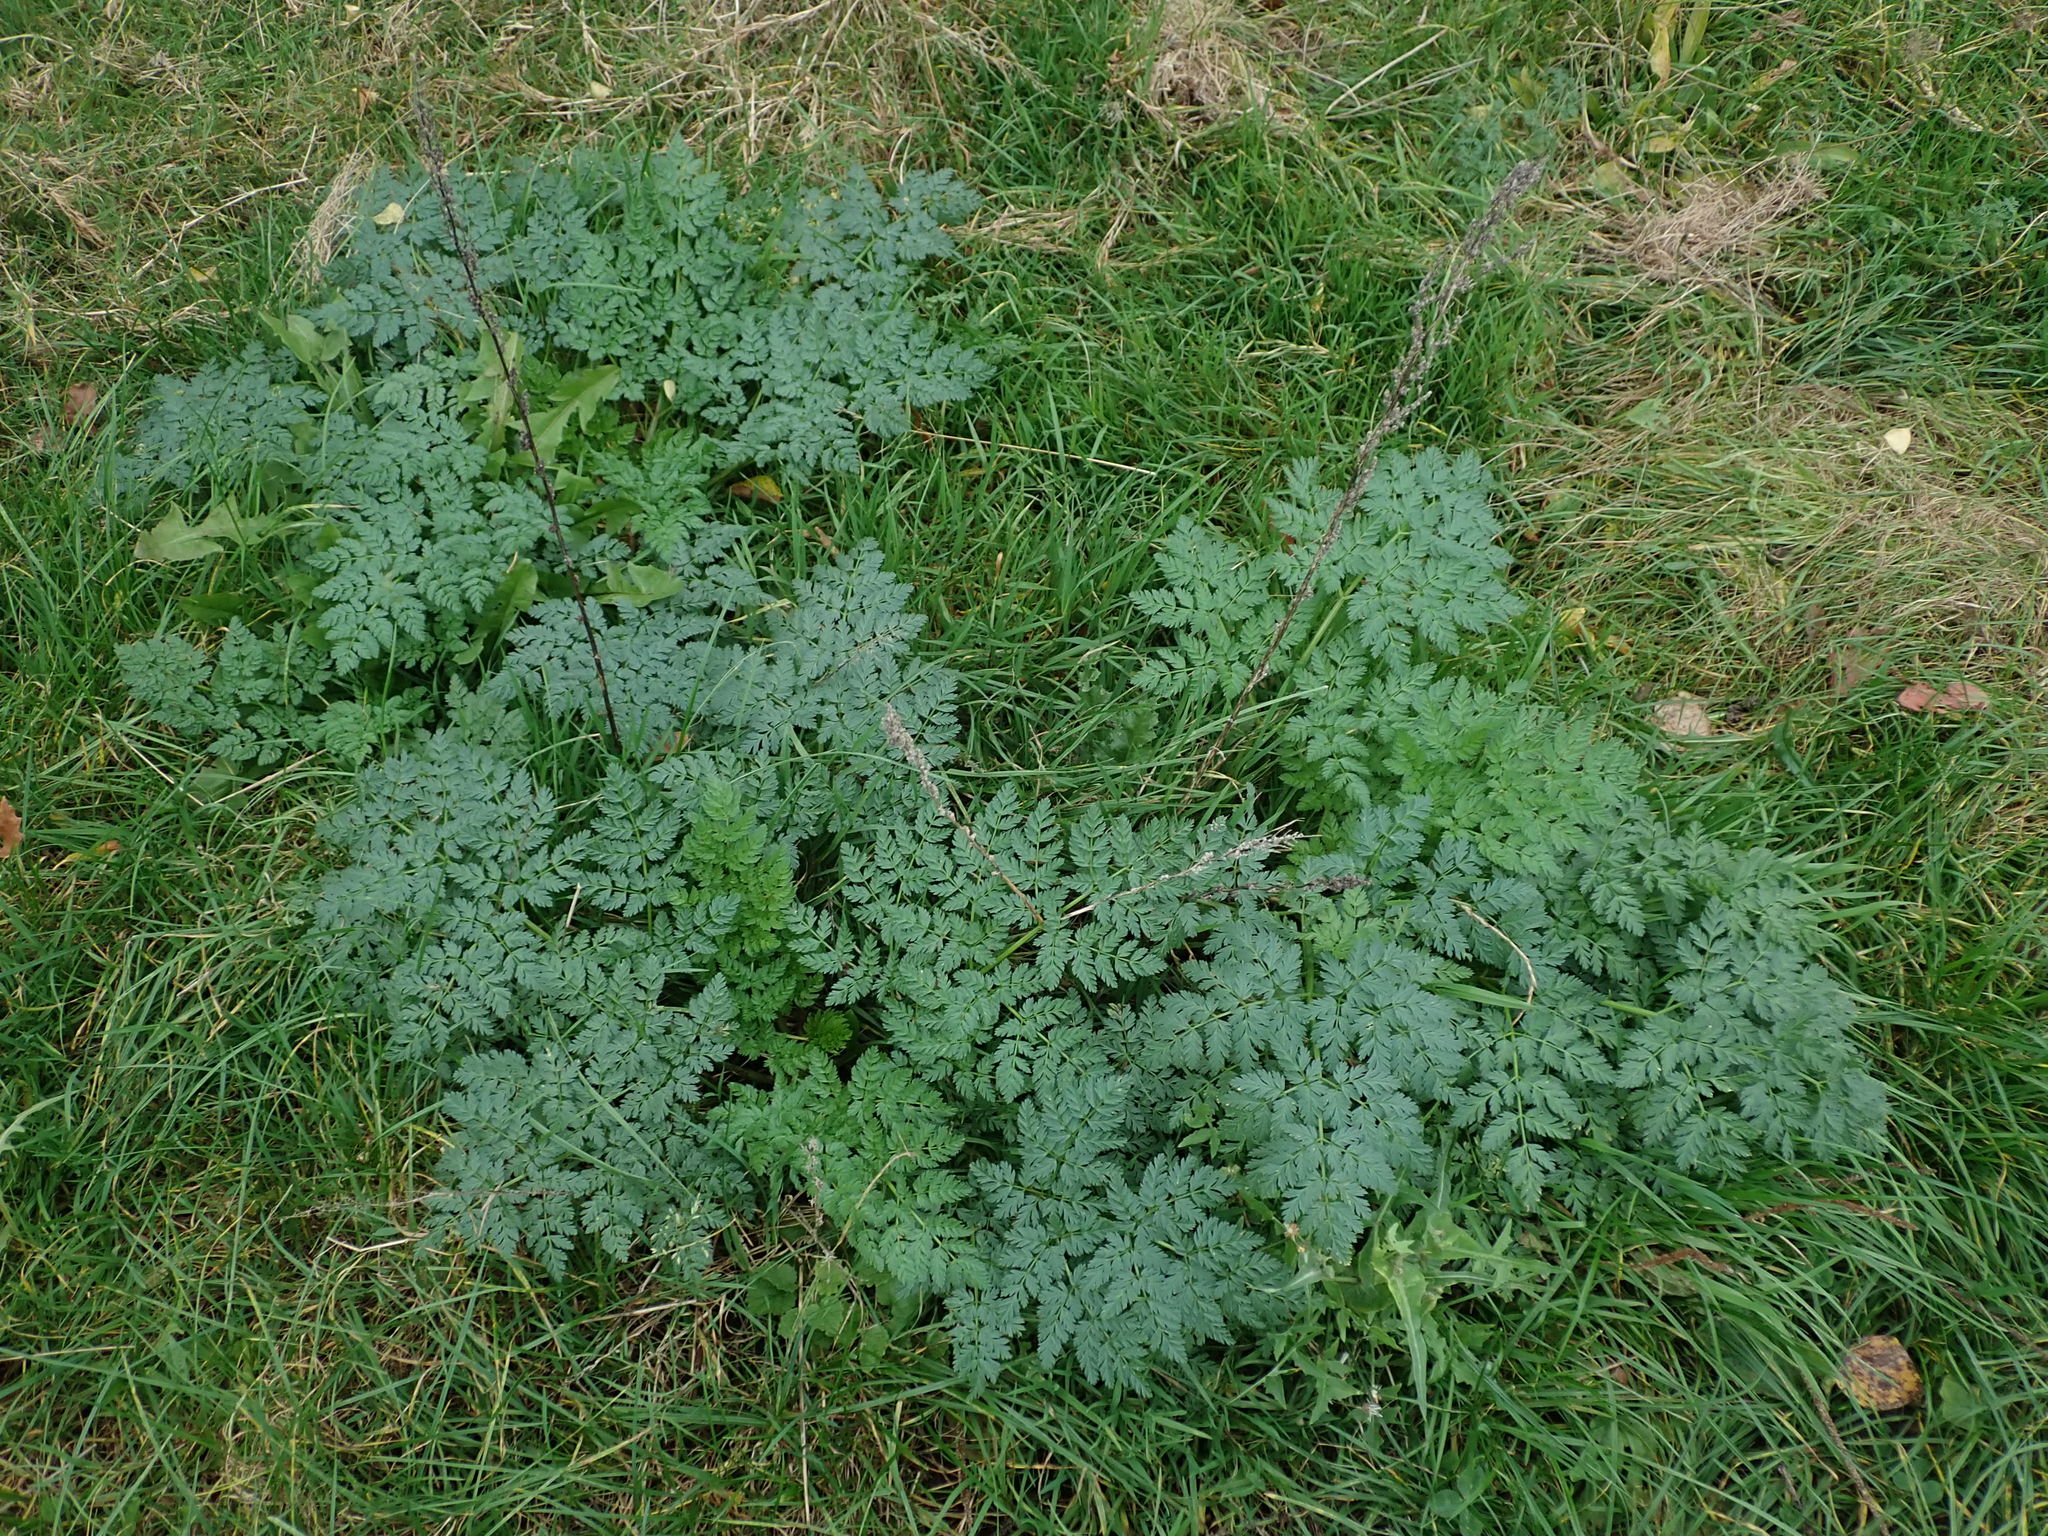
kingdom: Plantae
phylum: Tracheophyta
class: Magnoliopsida
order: Apiales
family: Apiaceae
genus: Conium
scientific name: Conium maculatum
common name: Hemlock
